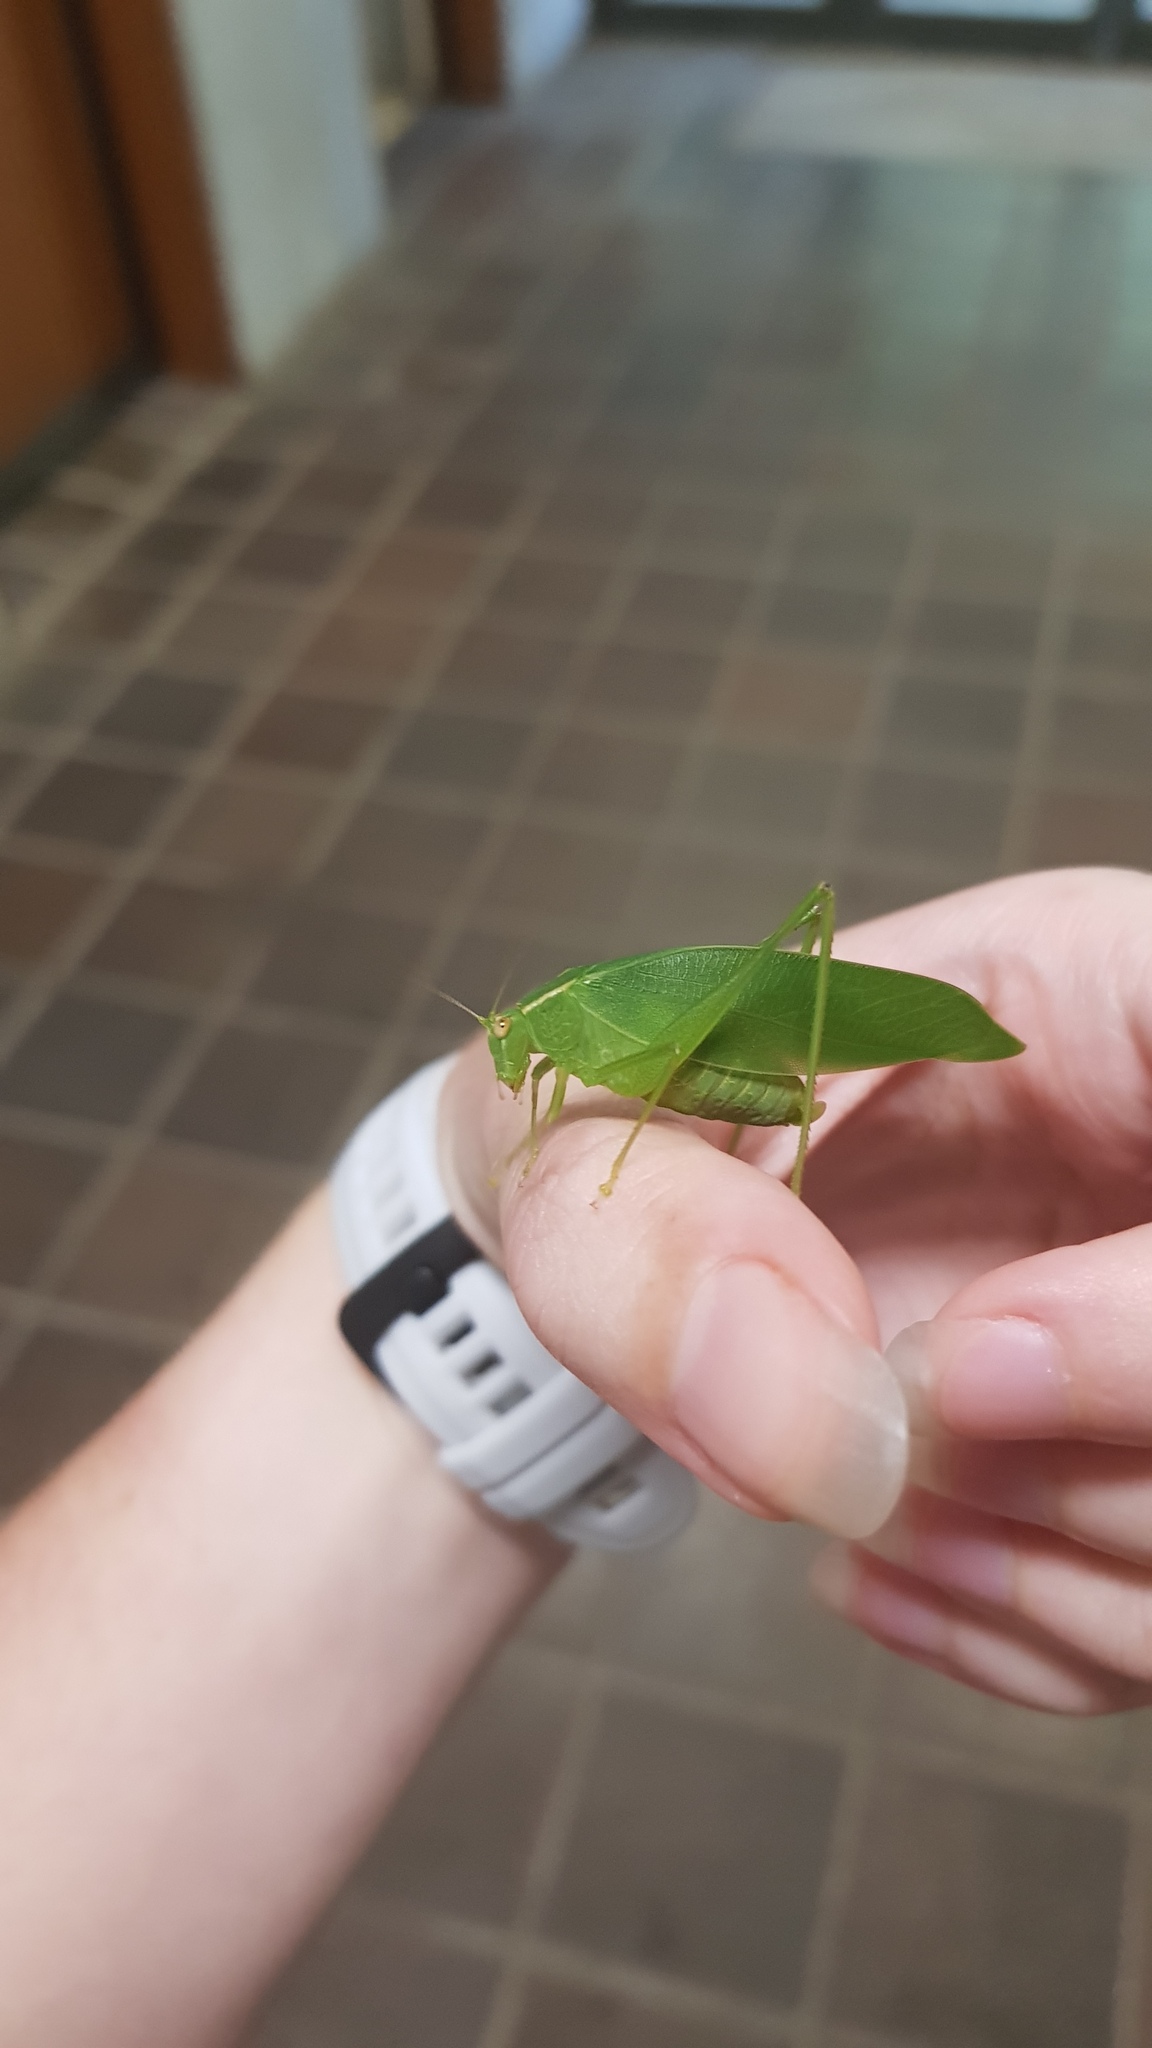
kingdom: Animalia
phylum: Arthropoda
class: Insecta
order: Orthoptera
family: Tettigoniidae
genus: Caedicia
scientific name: Caedicia simplex
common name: Common garden katydid
